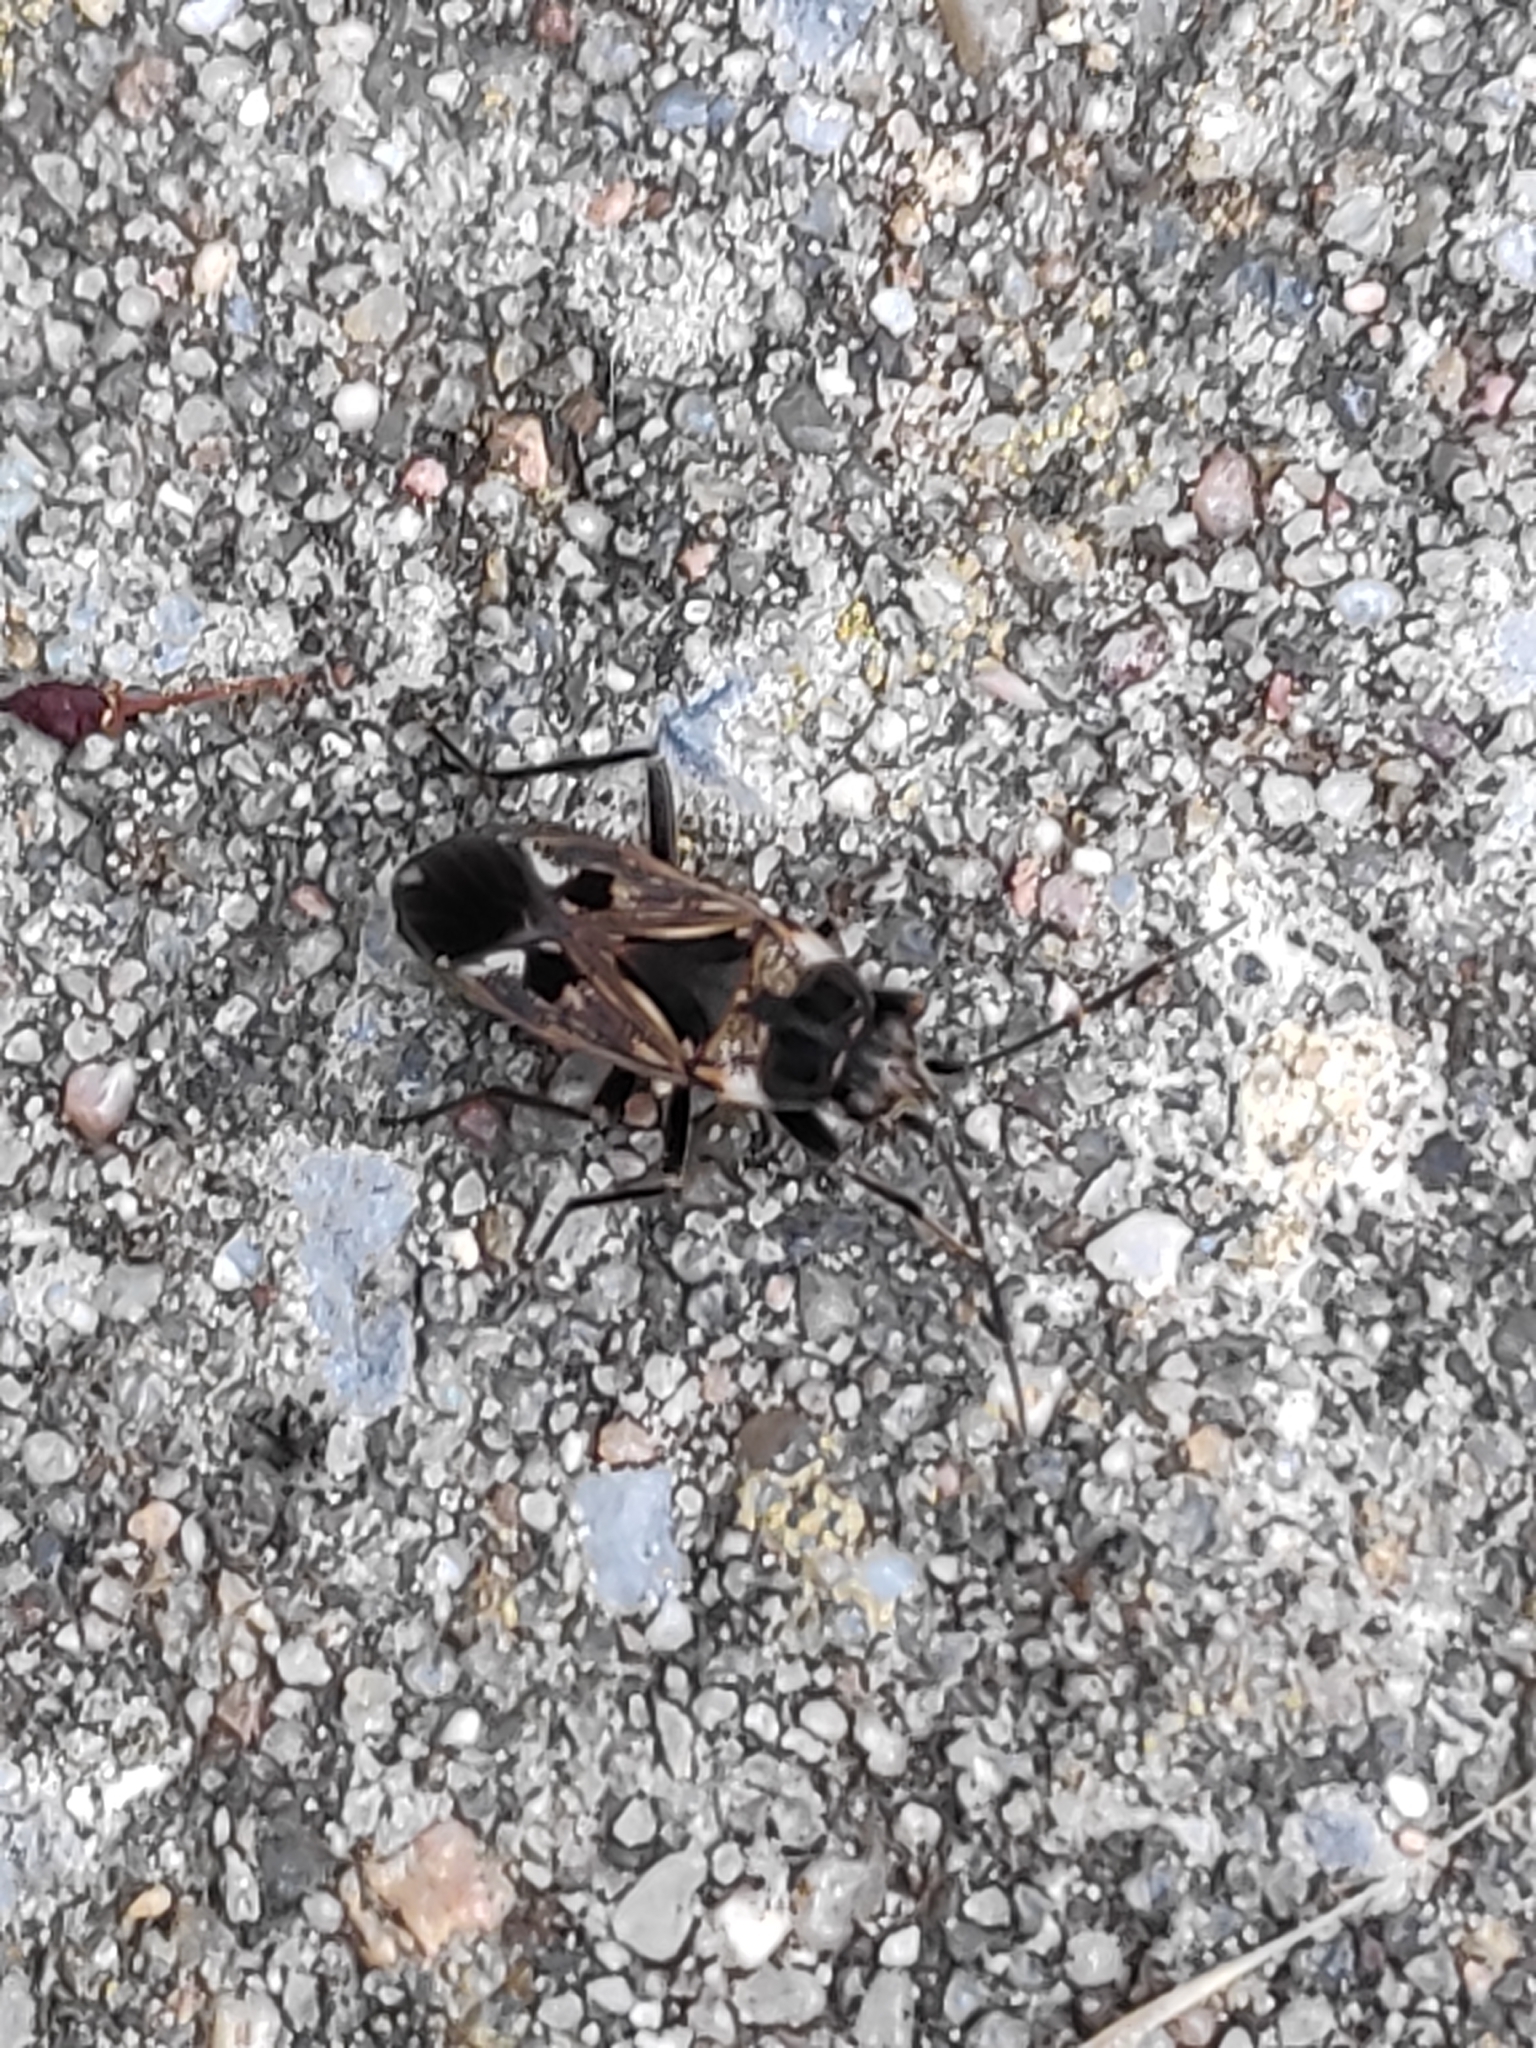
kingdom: Animalia
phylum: Arthropoda
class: Insecta
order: Hemiptera
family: Rhyparochromidae
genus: Rhyparochromus
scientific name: Rhyparochromus vulgaris
